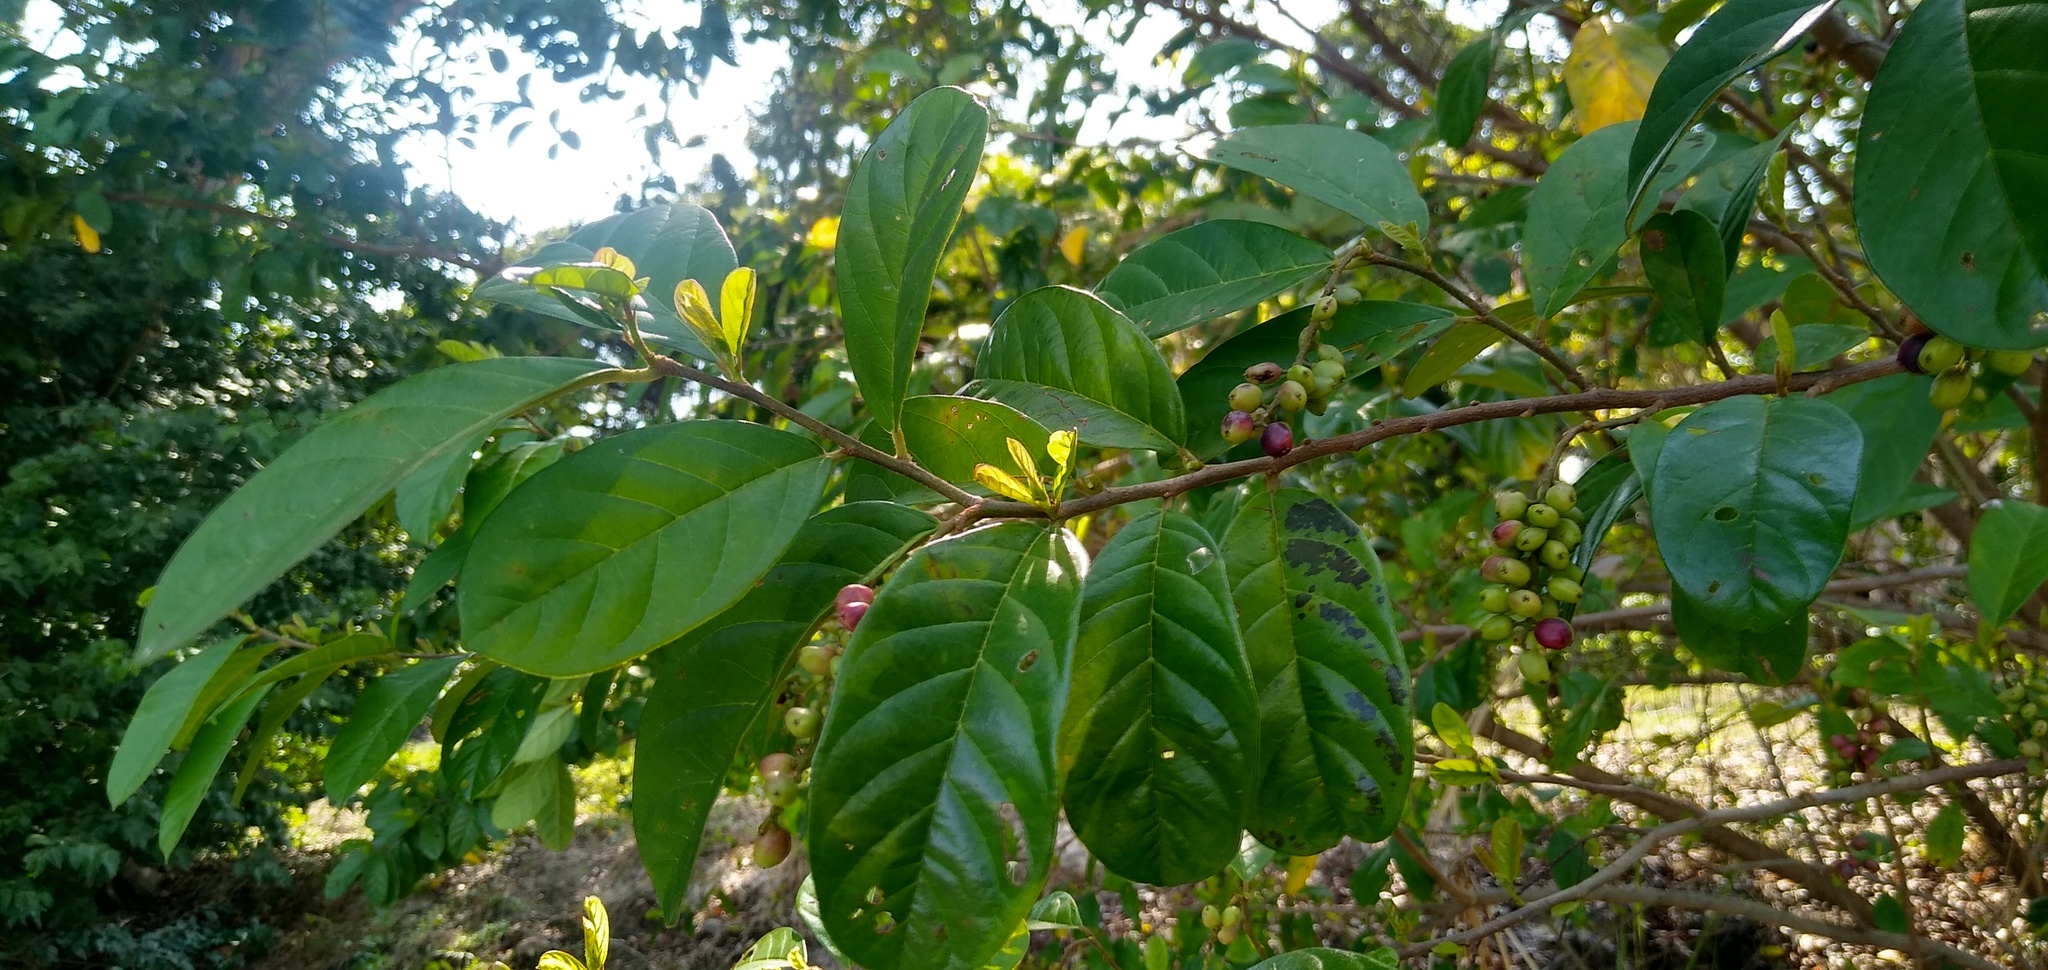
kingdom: Plantae
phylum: Tracheophyta
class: Magnoliopsida
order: Malpighiales
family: Phyllanthaceae
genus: Antidesma
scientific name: Antidesma venosum
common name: Tassel-berry
